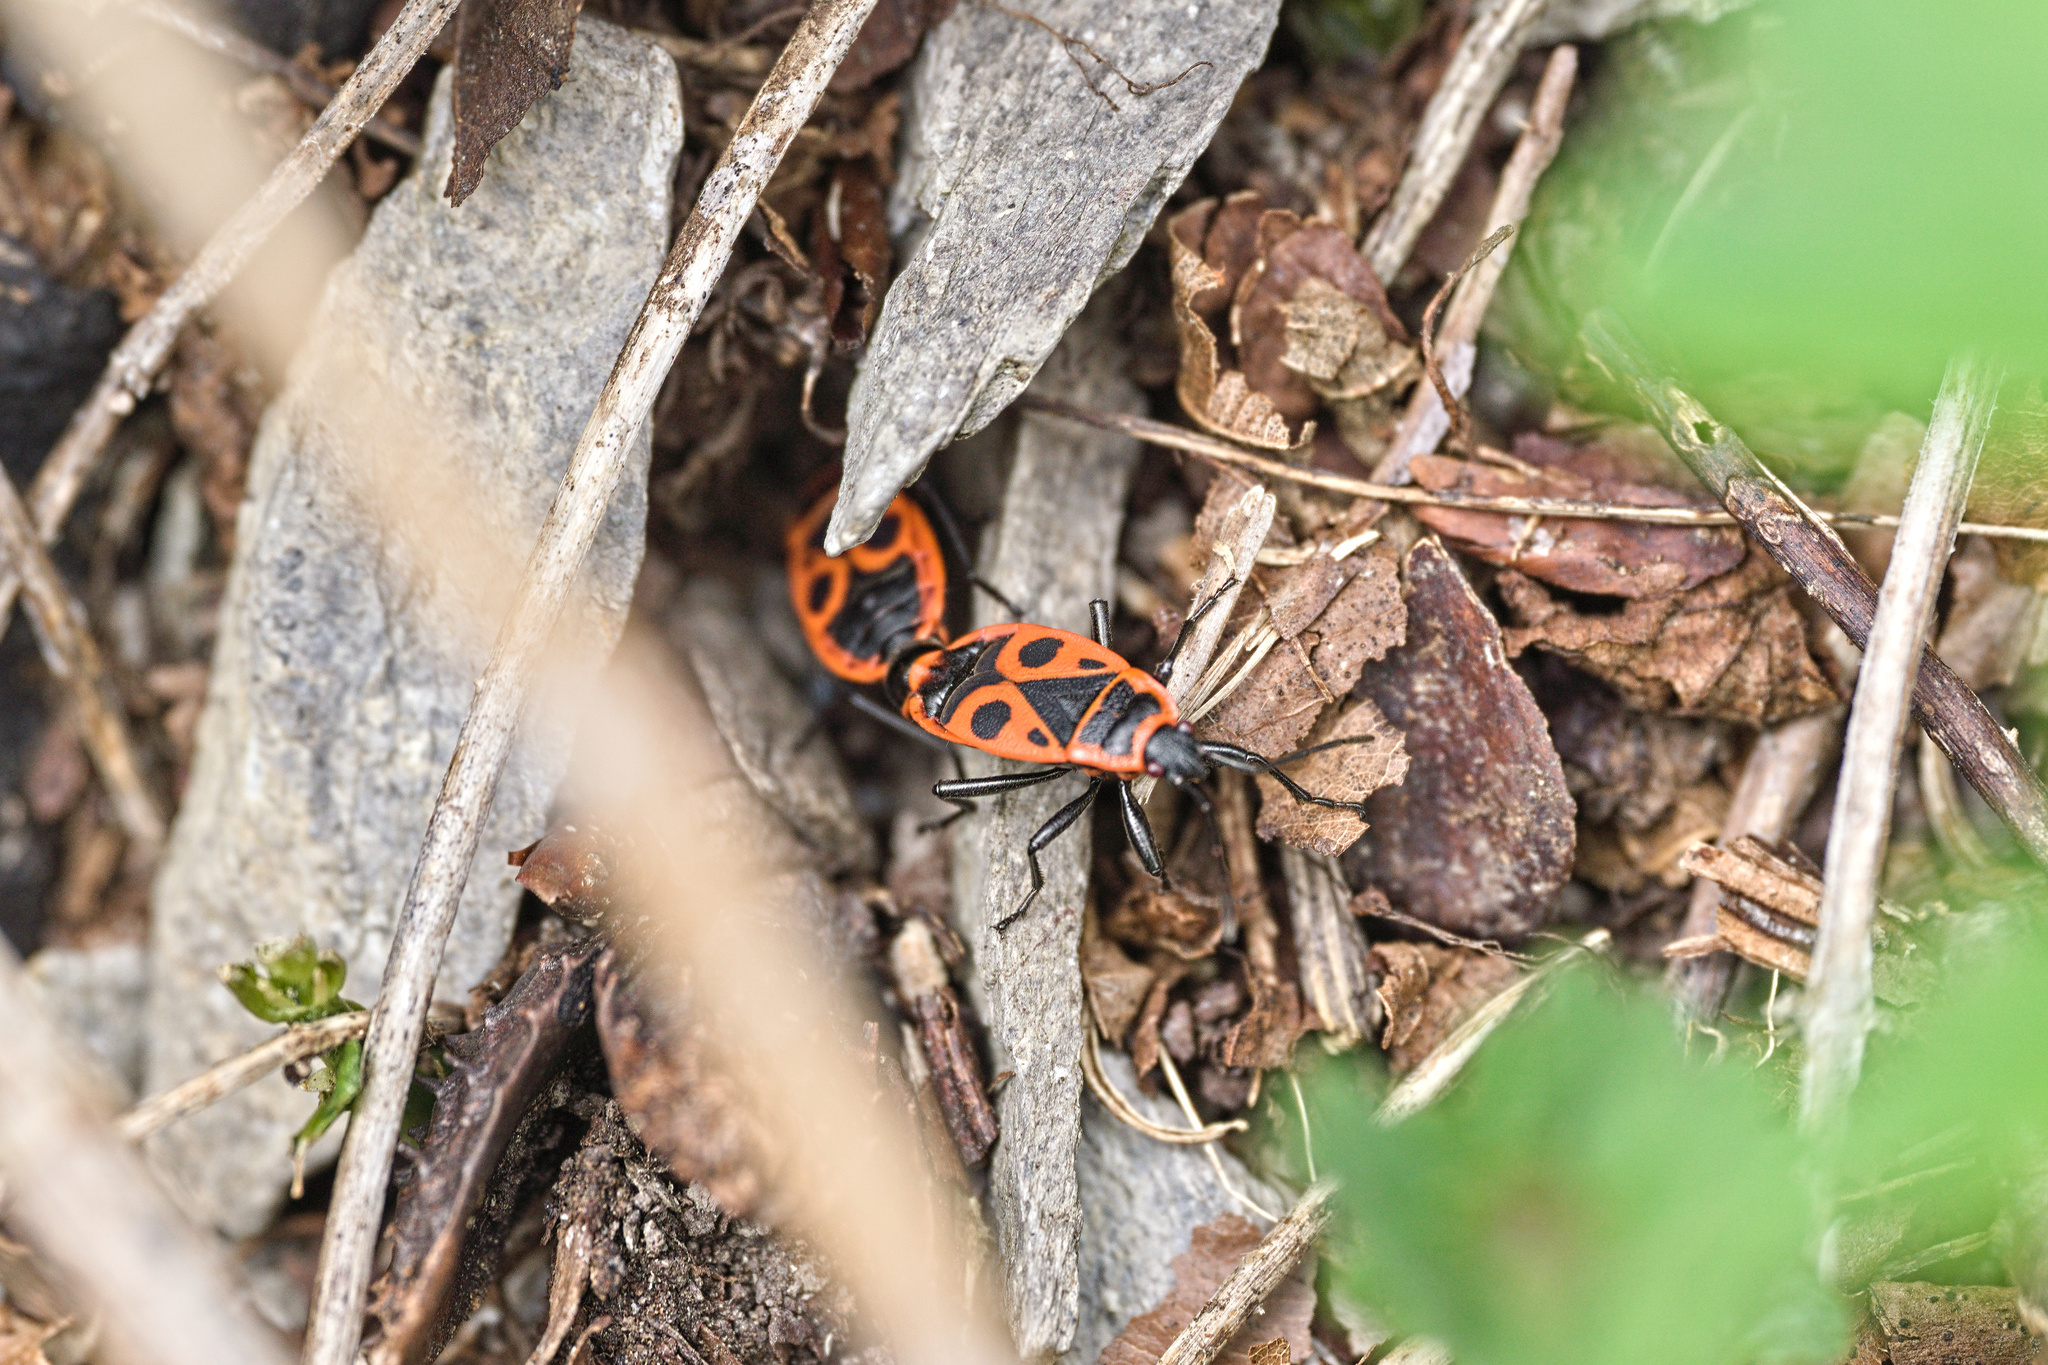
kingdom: Animalia
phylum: Arthropoda
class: Insecta
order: Hemiptera
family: Pyrrhocoridae
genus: Pyrrhocoris
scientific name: Pyrrhocoris apterus
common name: Firebug
